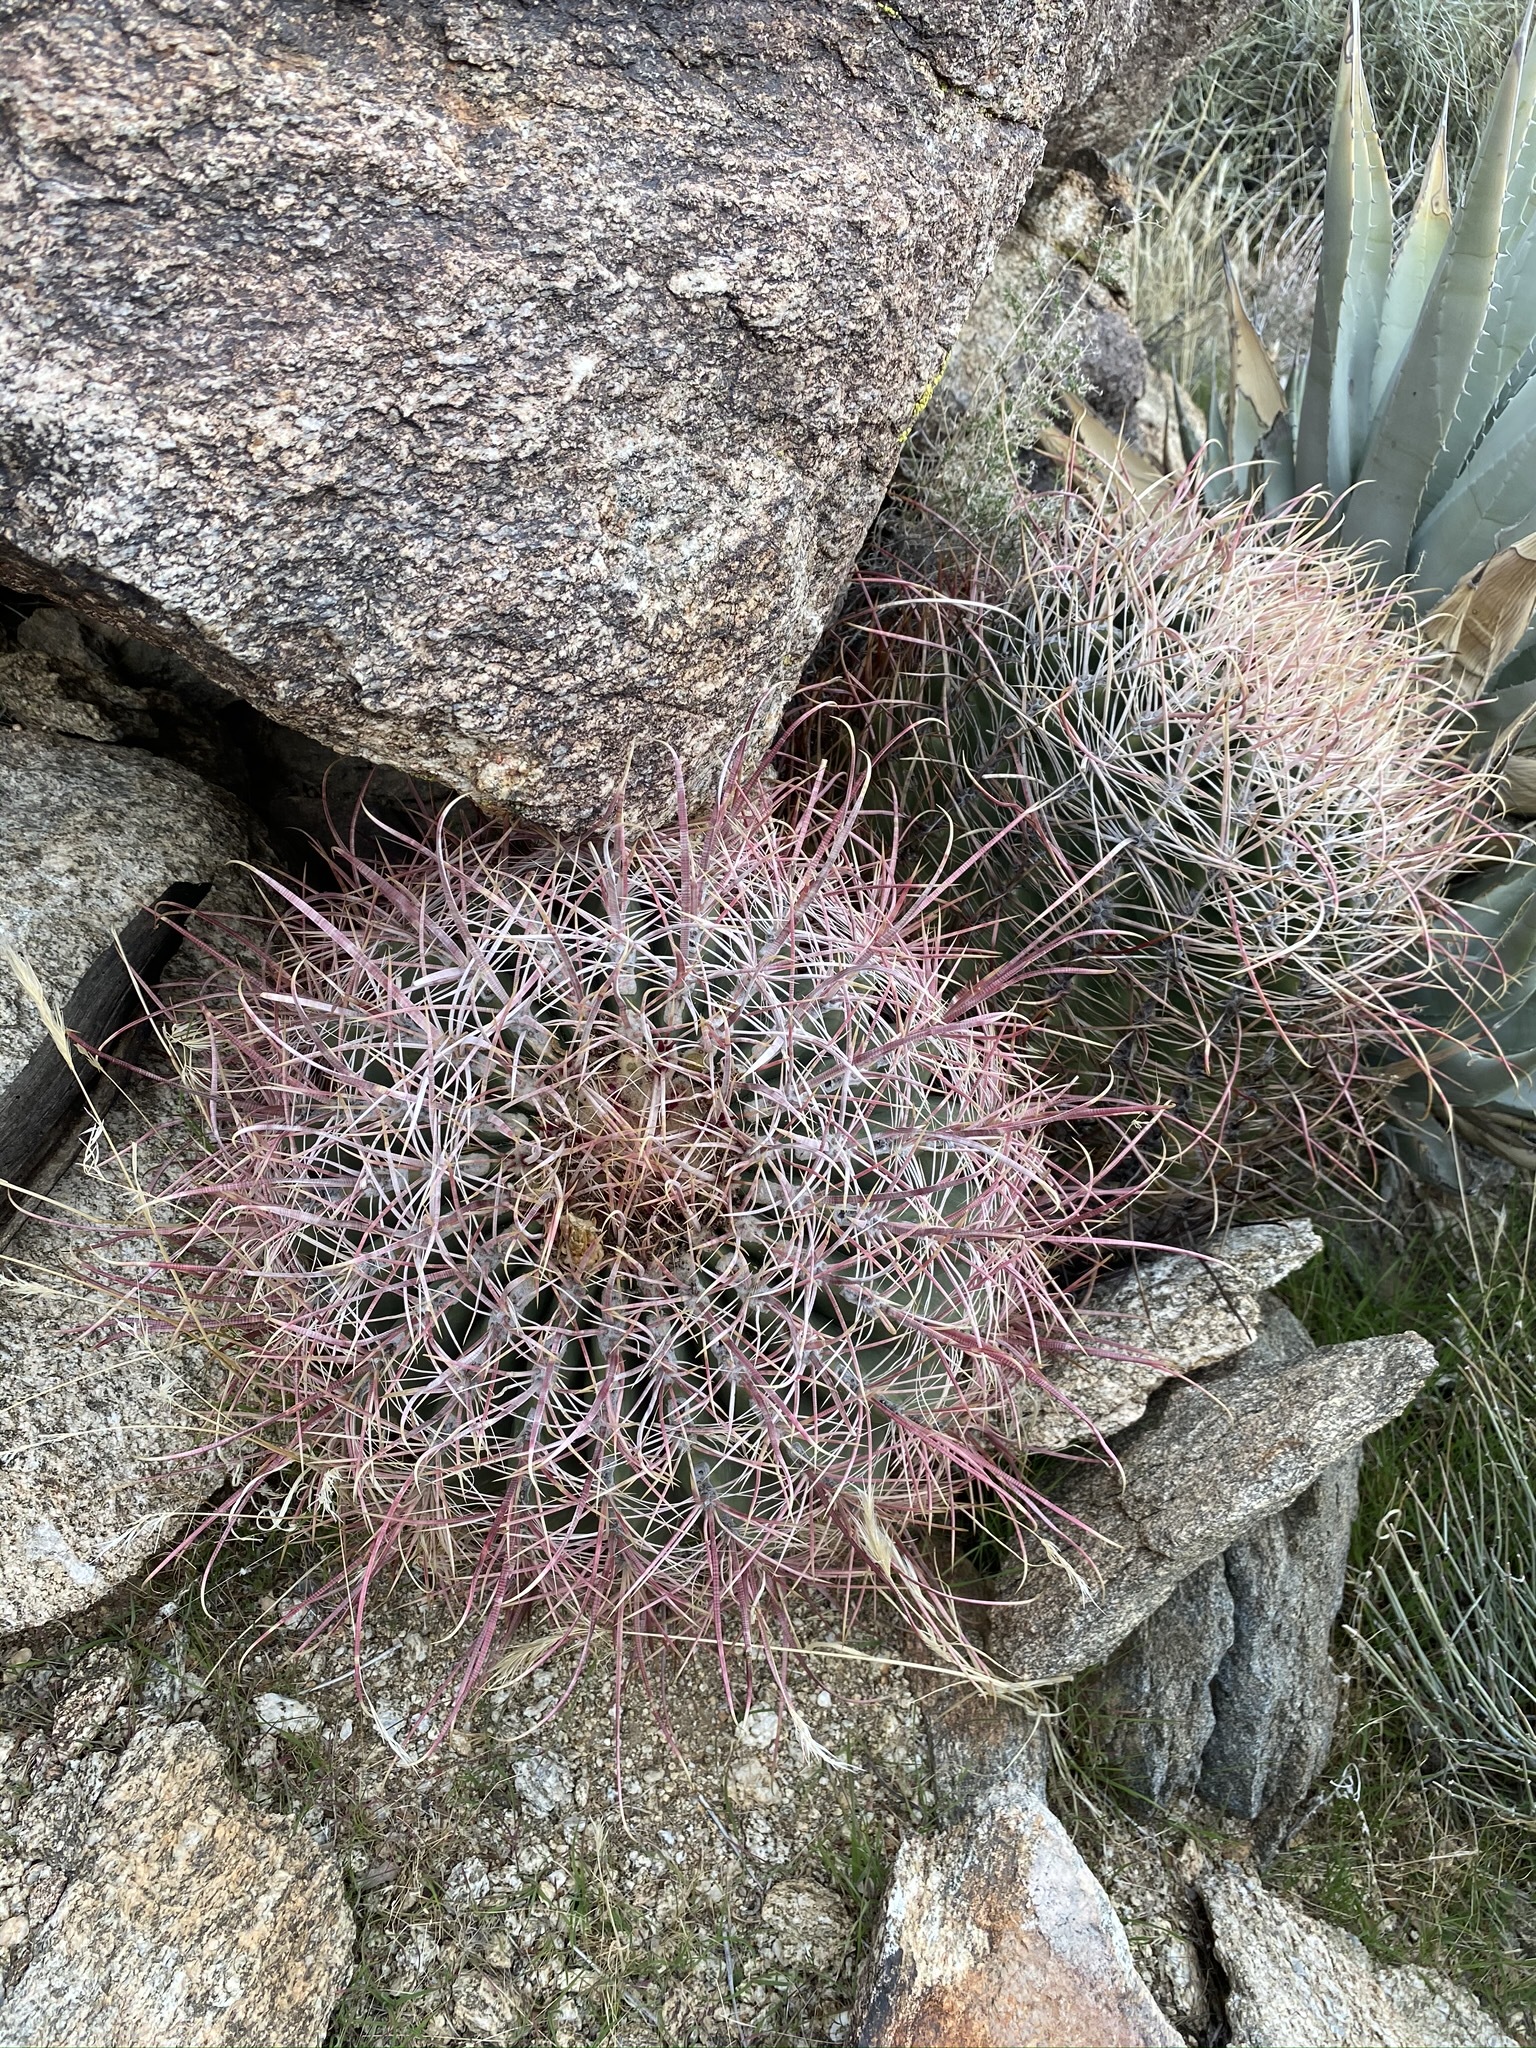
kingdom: Plantae
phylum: Tracheophyta
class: Magnoliopsida
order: Caryophyllales
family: Cactaceae
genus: Ferocactus
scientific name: Ferocactus cylindraceus
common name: California barrel cactus
